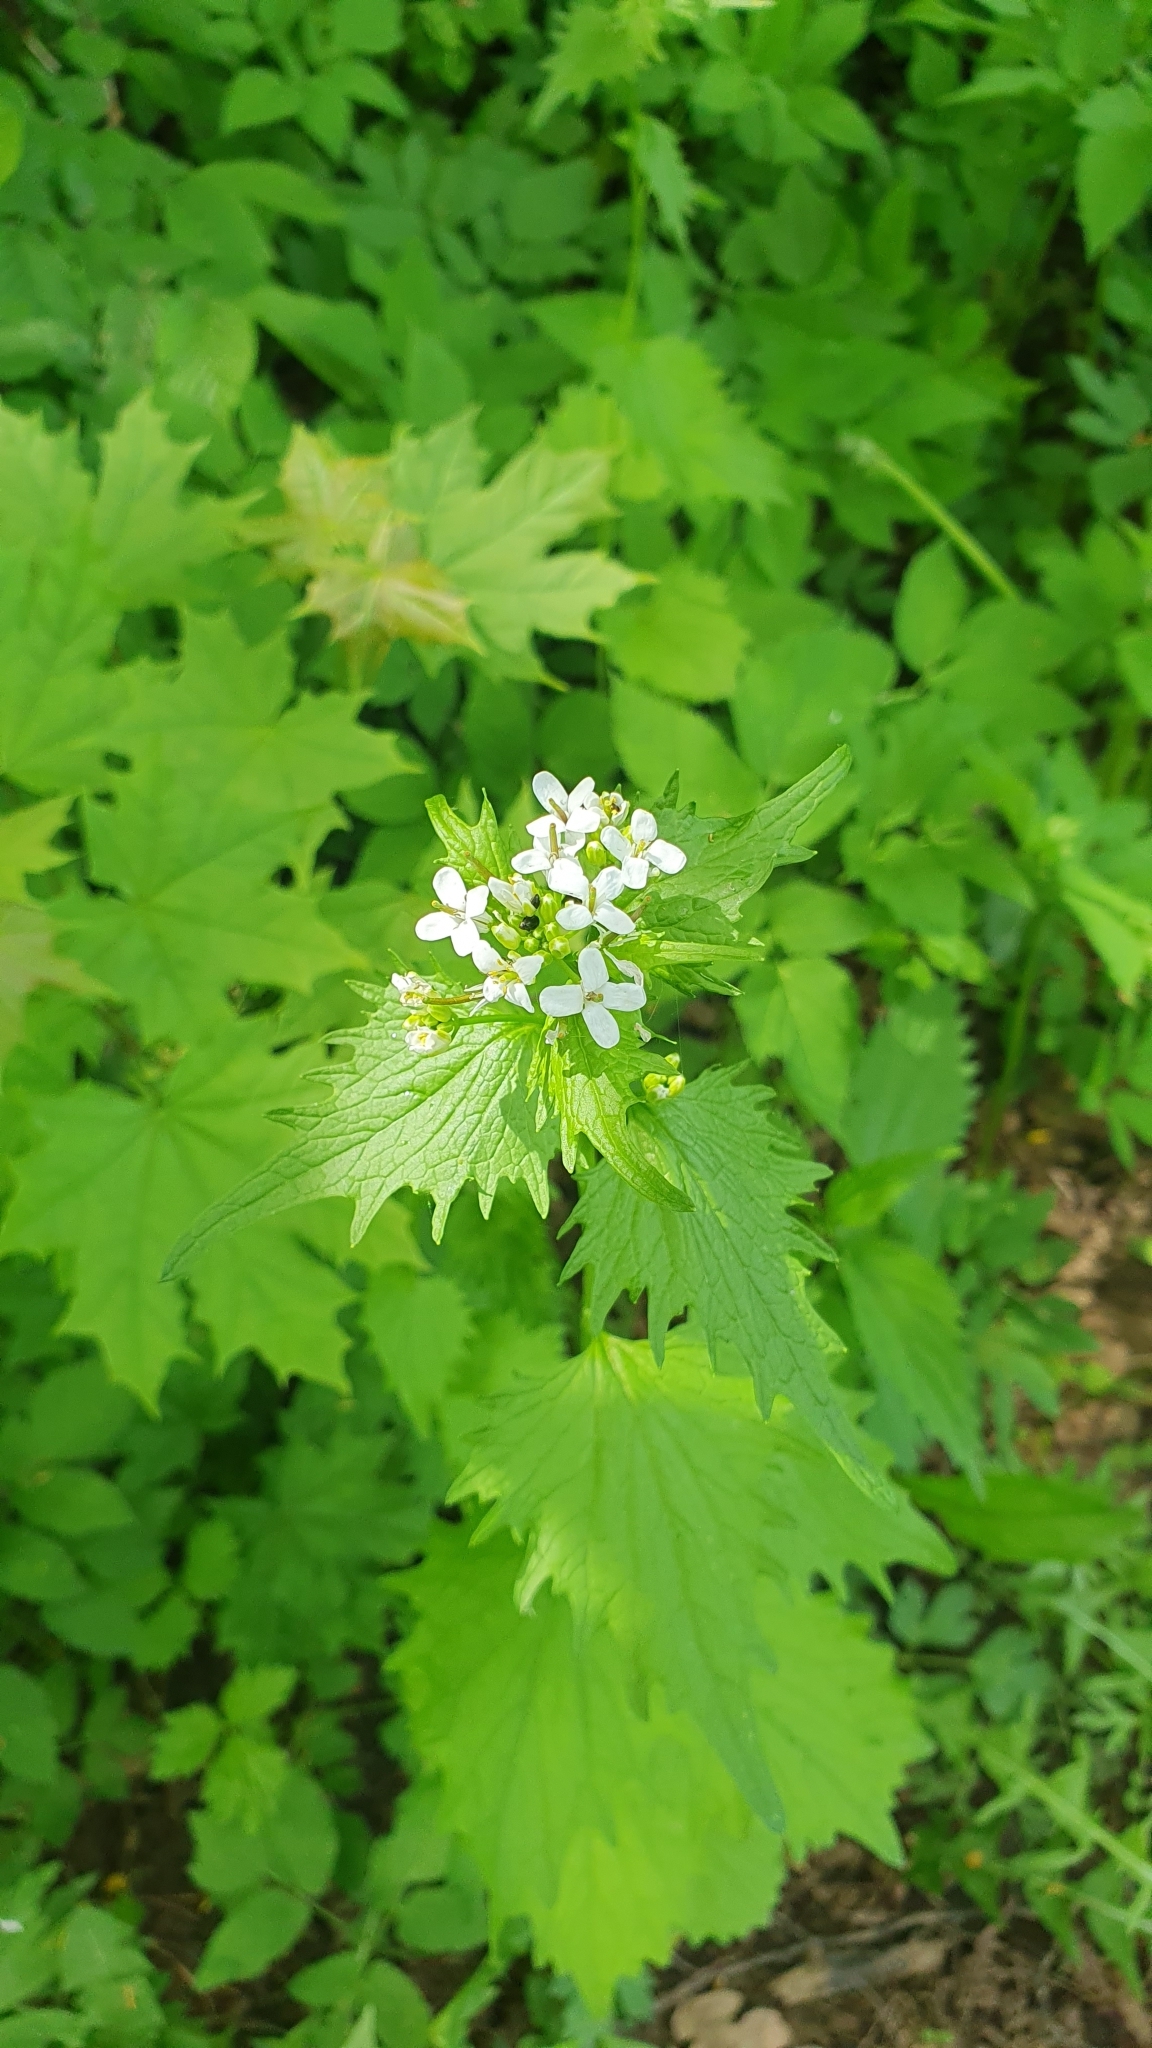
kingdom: Plantae
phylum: Tracheophyta
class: Magnoliopsida
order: Brassicales
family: Brassicaceae
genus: Alliaria
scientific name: Alliaria petiolata
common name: Garlic mustard
